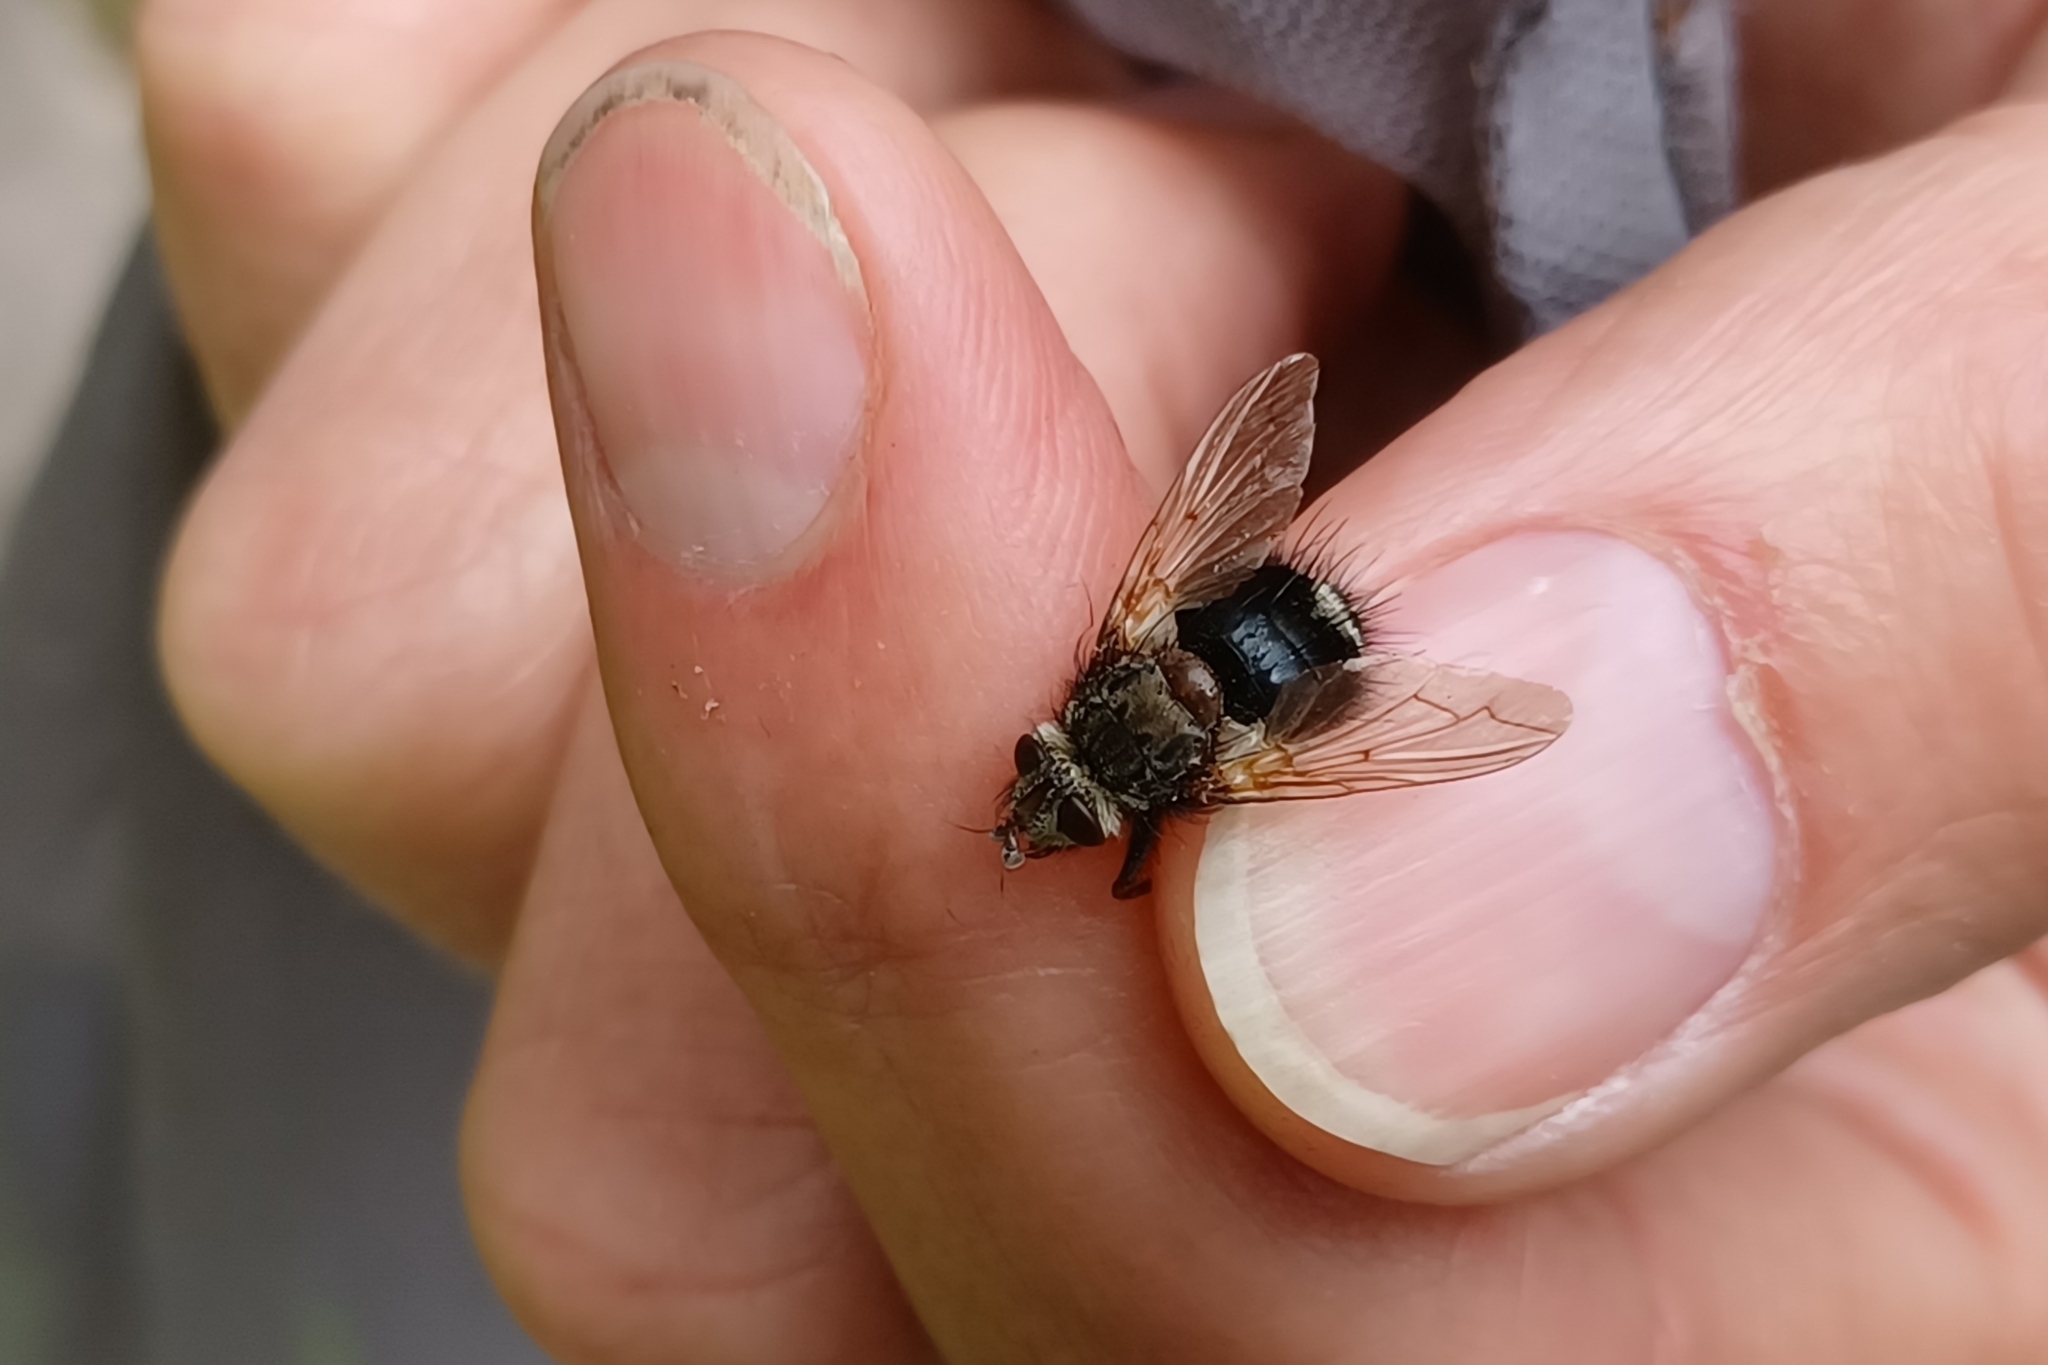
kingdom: Animalia
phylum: Arthropoda
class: Insecta
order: Diptera
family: Tachinidae
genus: Epalpus
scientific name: Epalpus signifer
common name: Early tachinid fly
